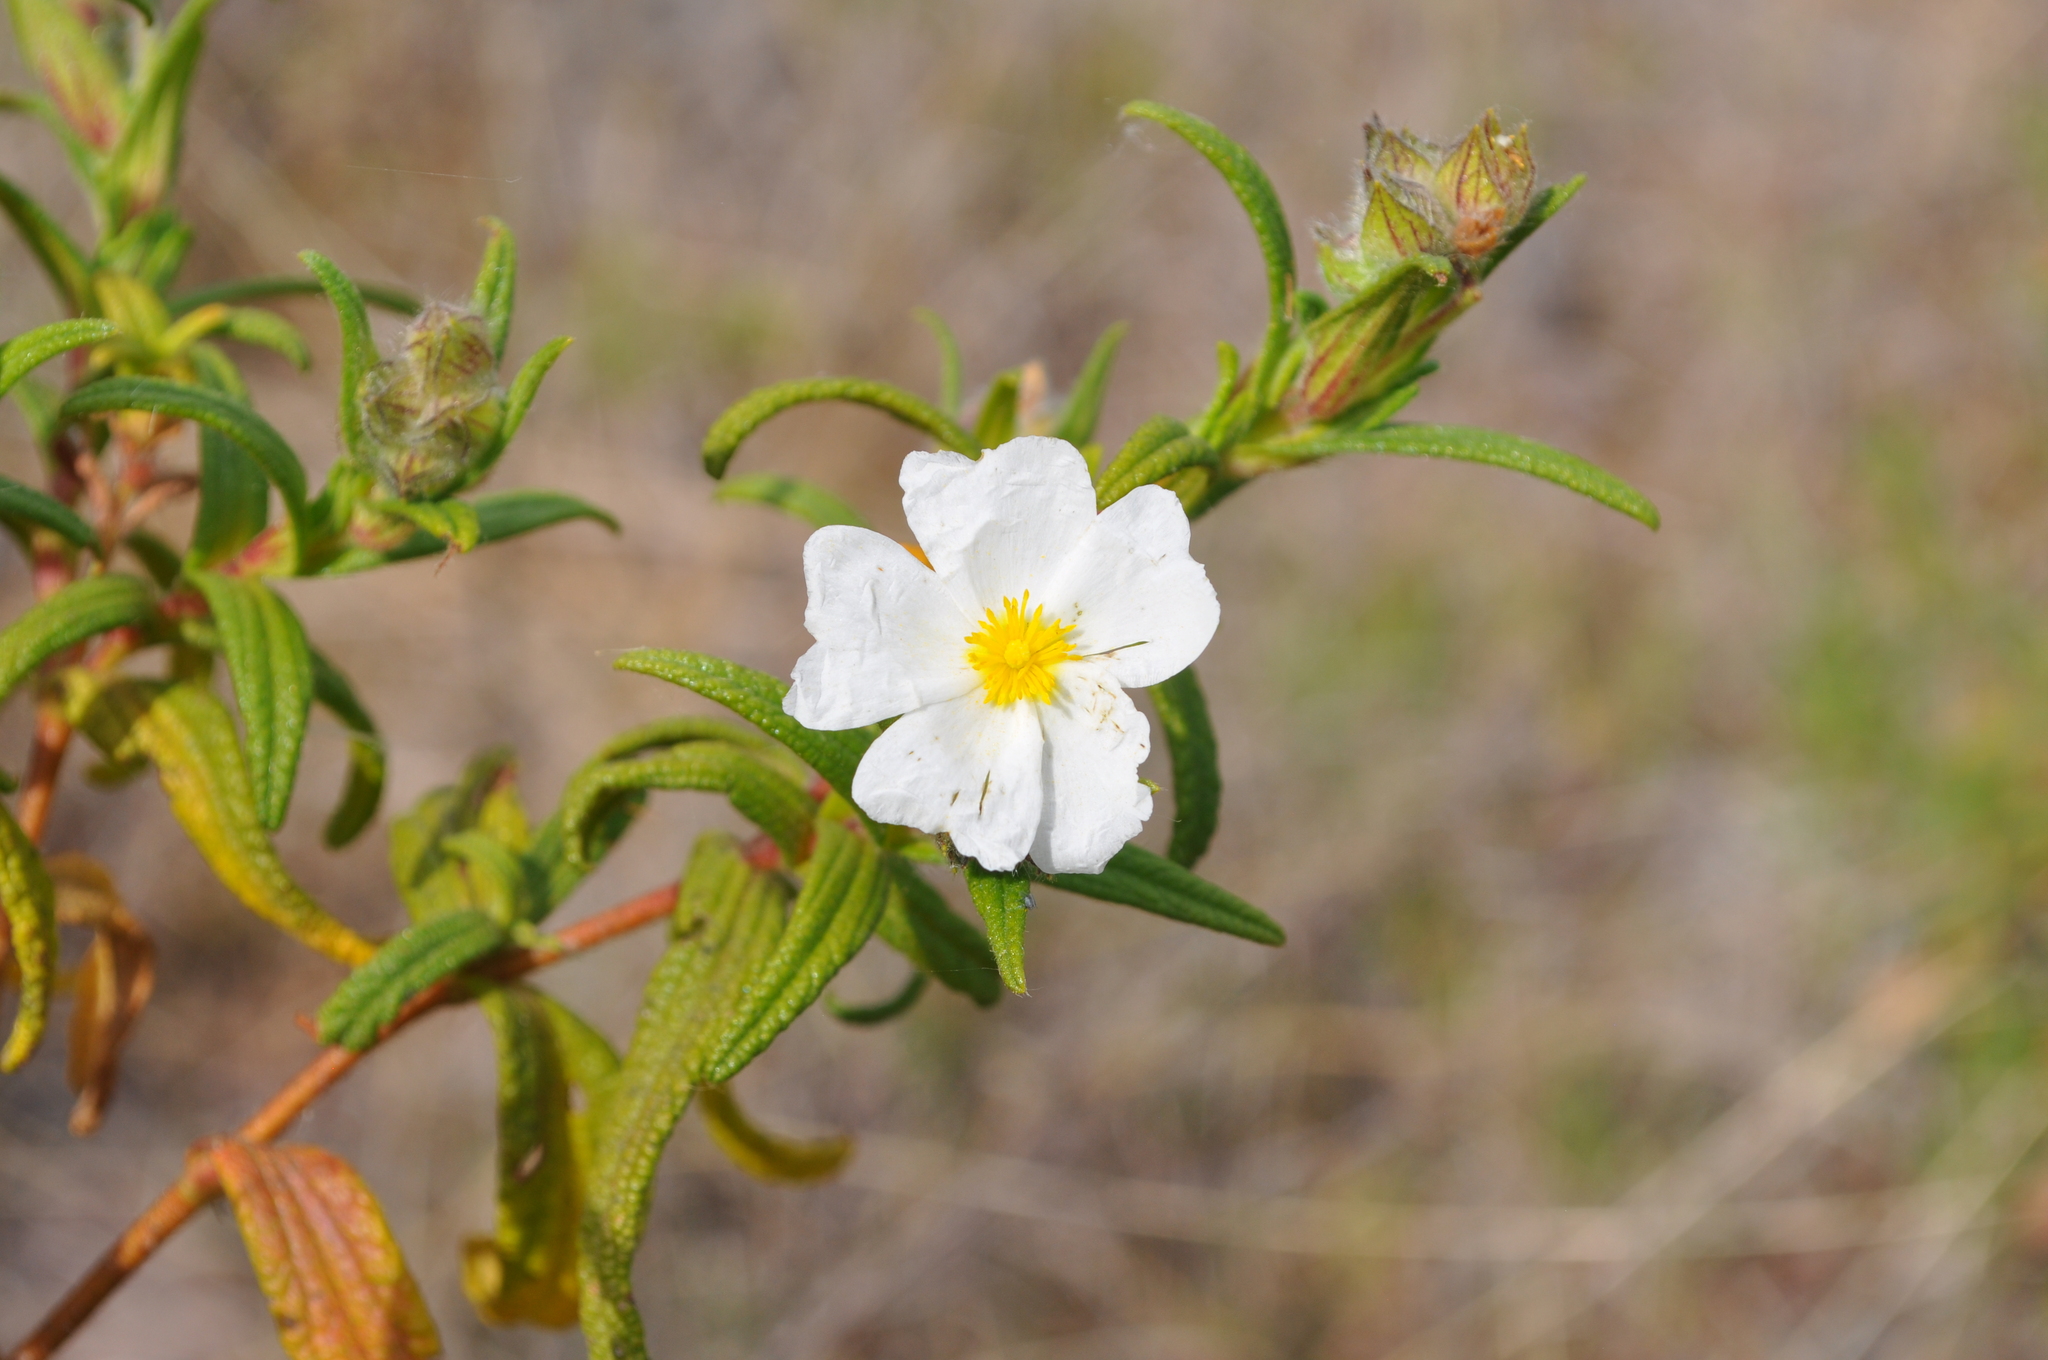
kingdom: Plantae
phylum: Tracheophyta
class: Magnoliopsida
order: Malvales
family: Cistaceae
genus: Cistus
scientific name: Cistus monspeliensis
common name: Montpelier cistus
